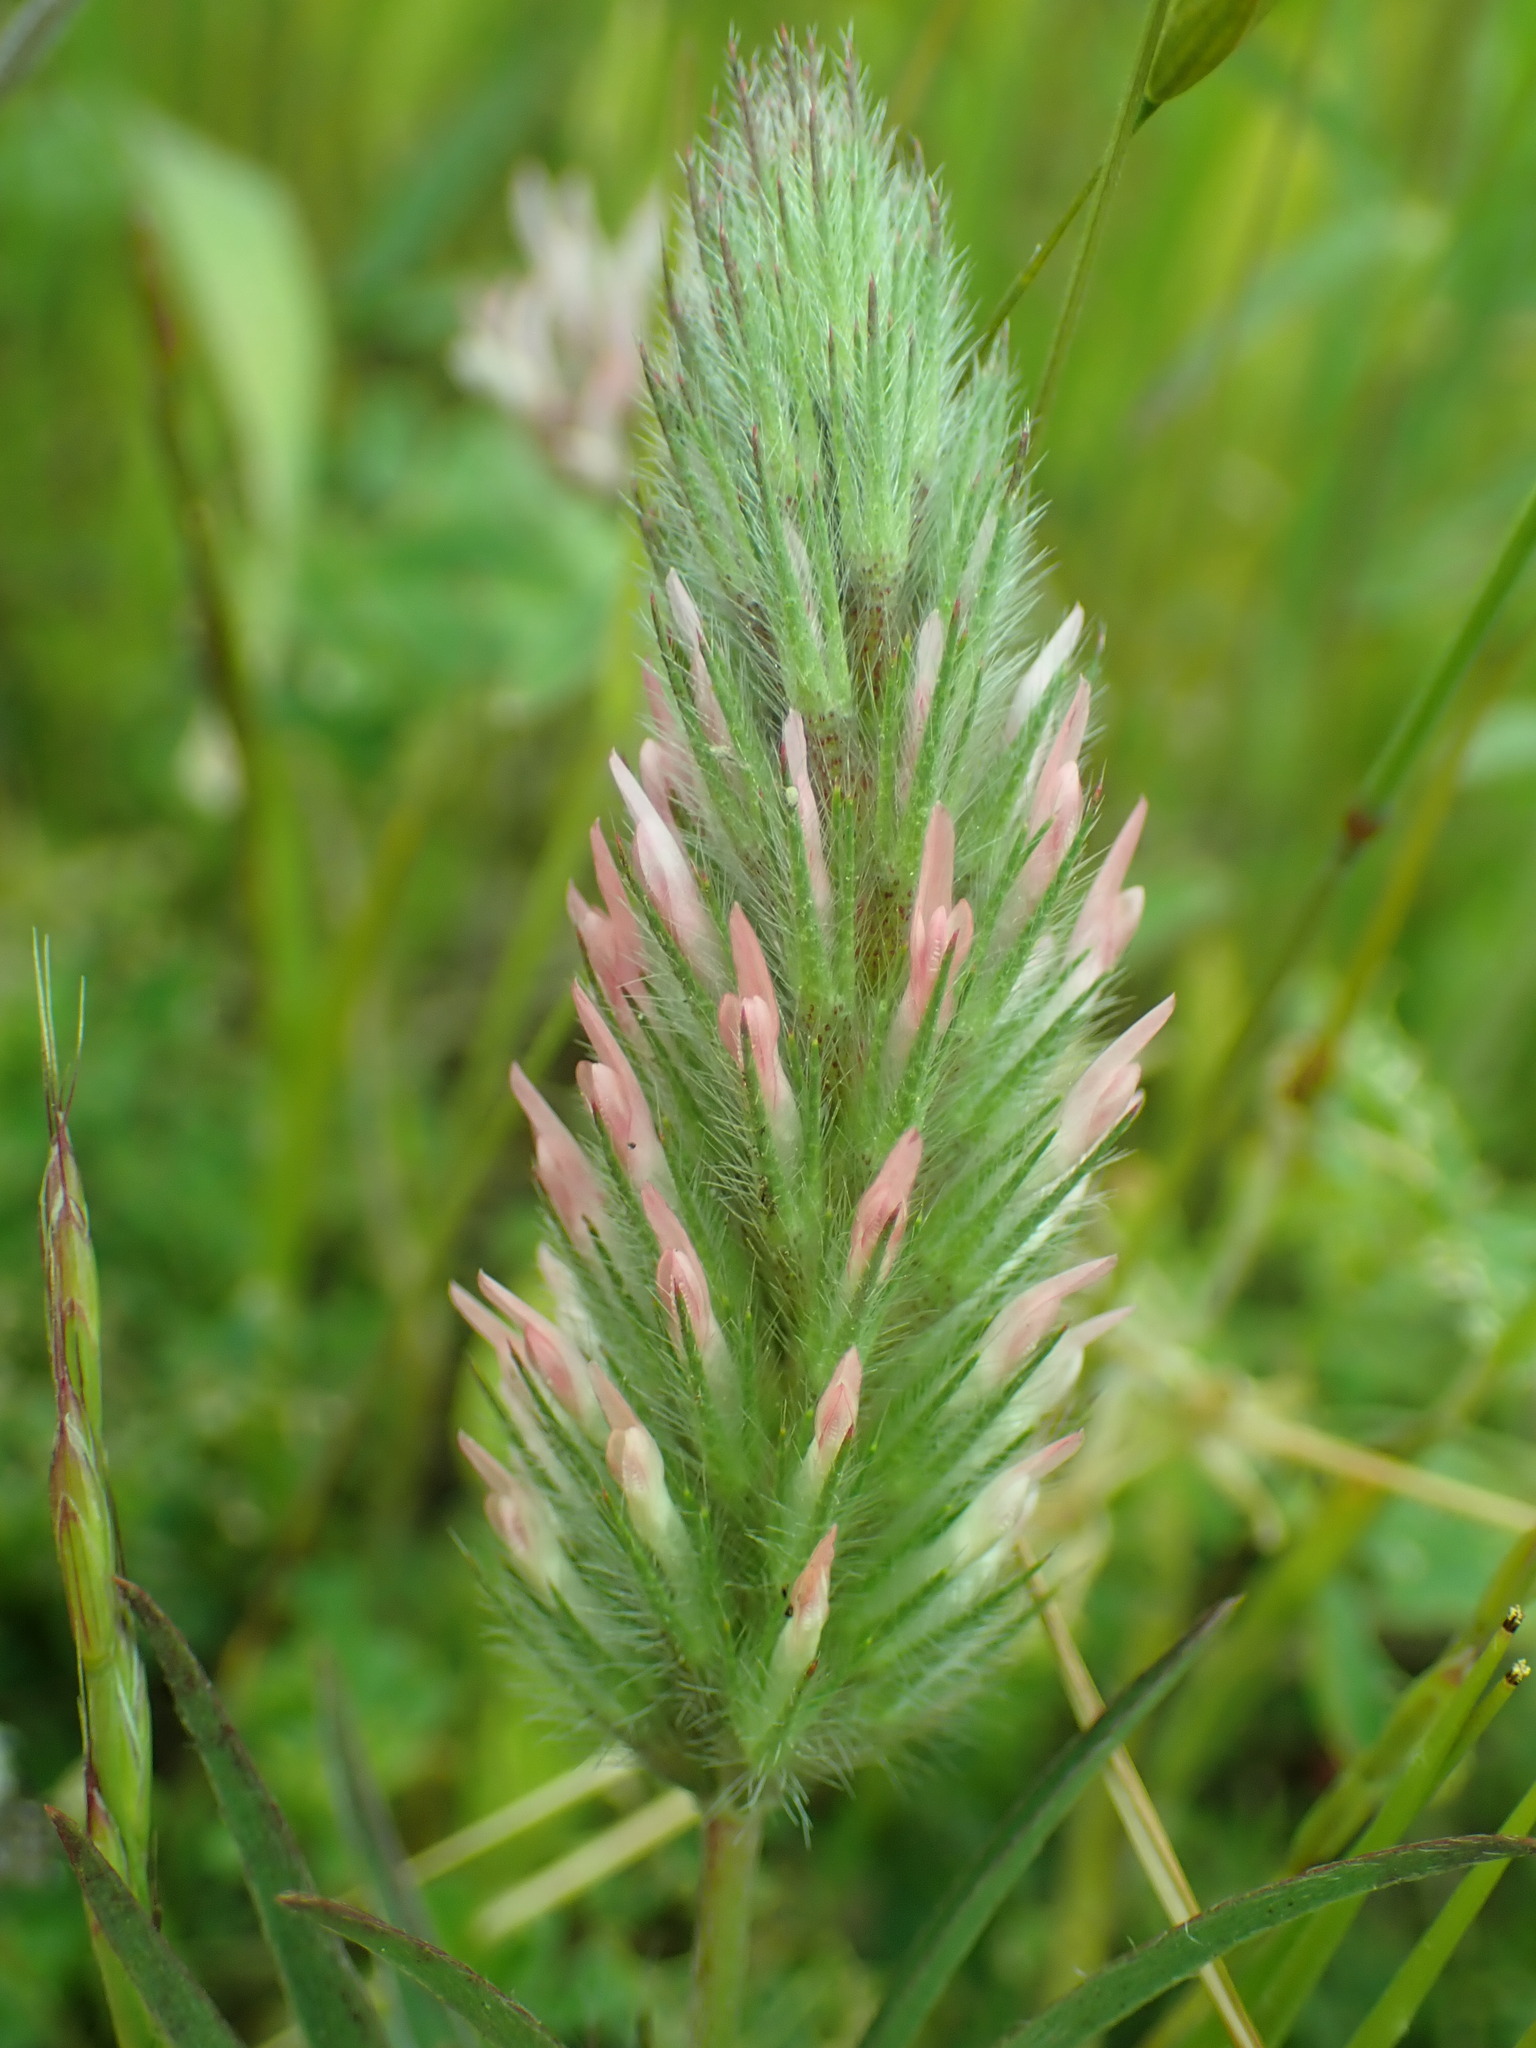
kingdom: Plantae
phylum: Tracheophyta
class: Magnoliopsida
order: Fabales
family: Fabaceae
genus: Trifolium
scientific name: Trifolium angustifolium
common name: Narrow clover
